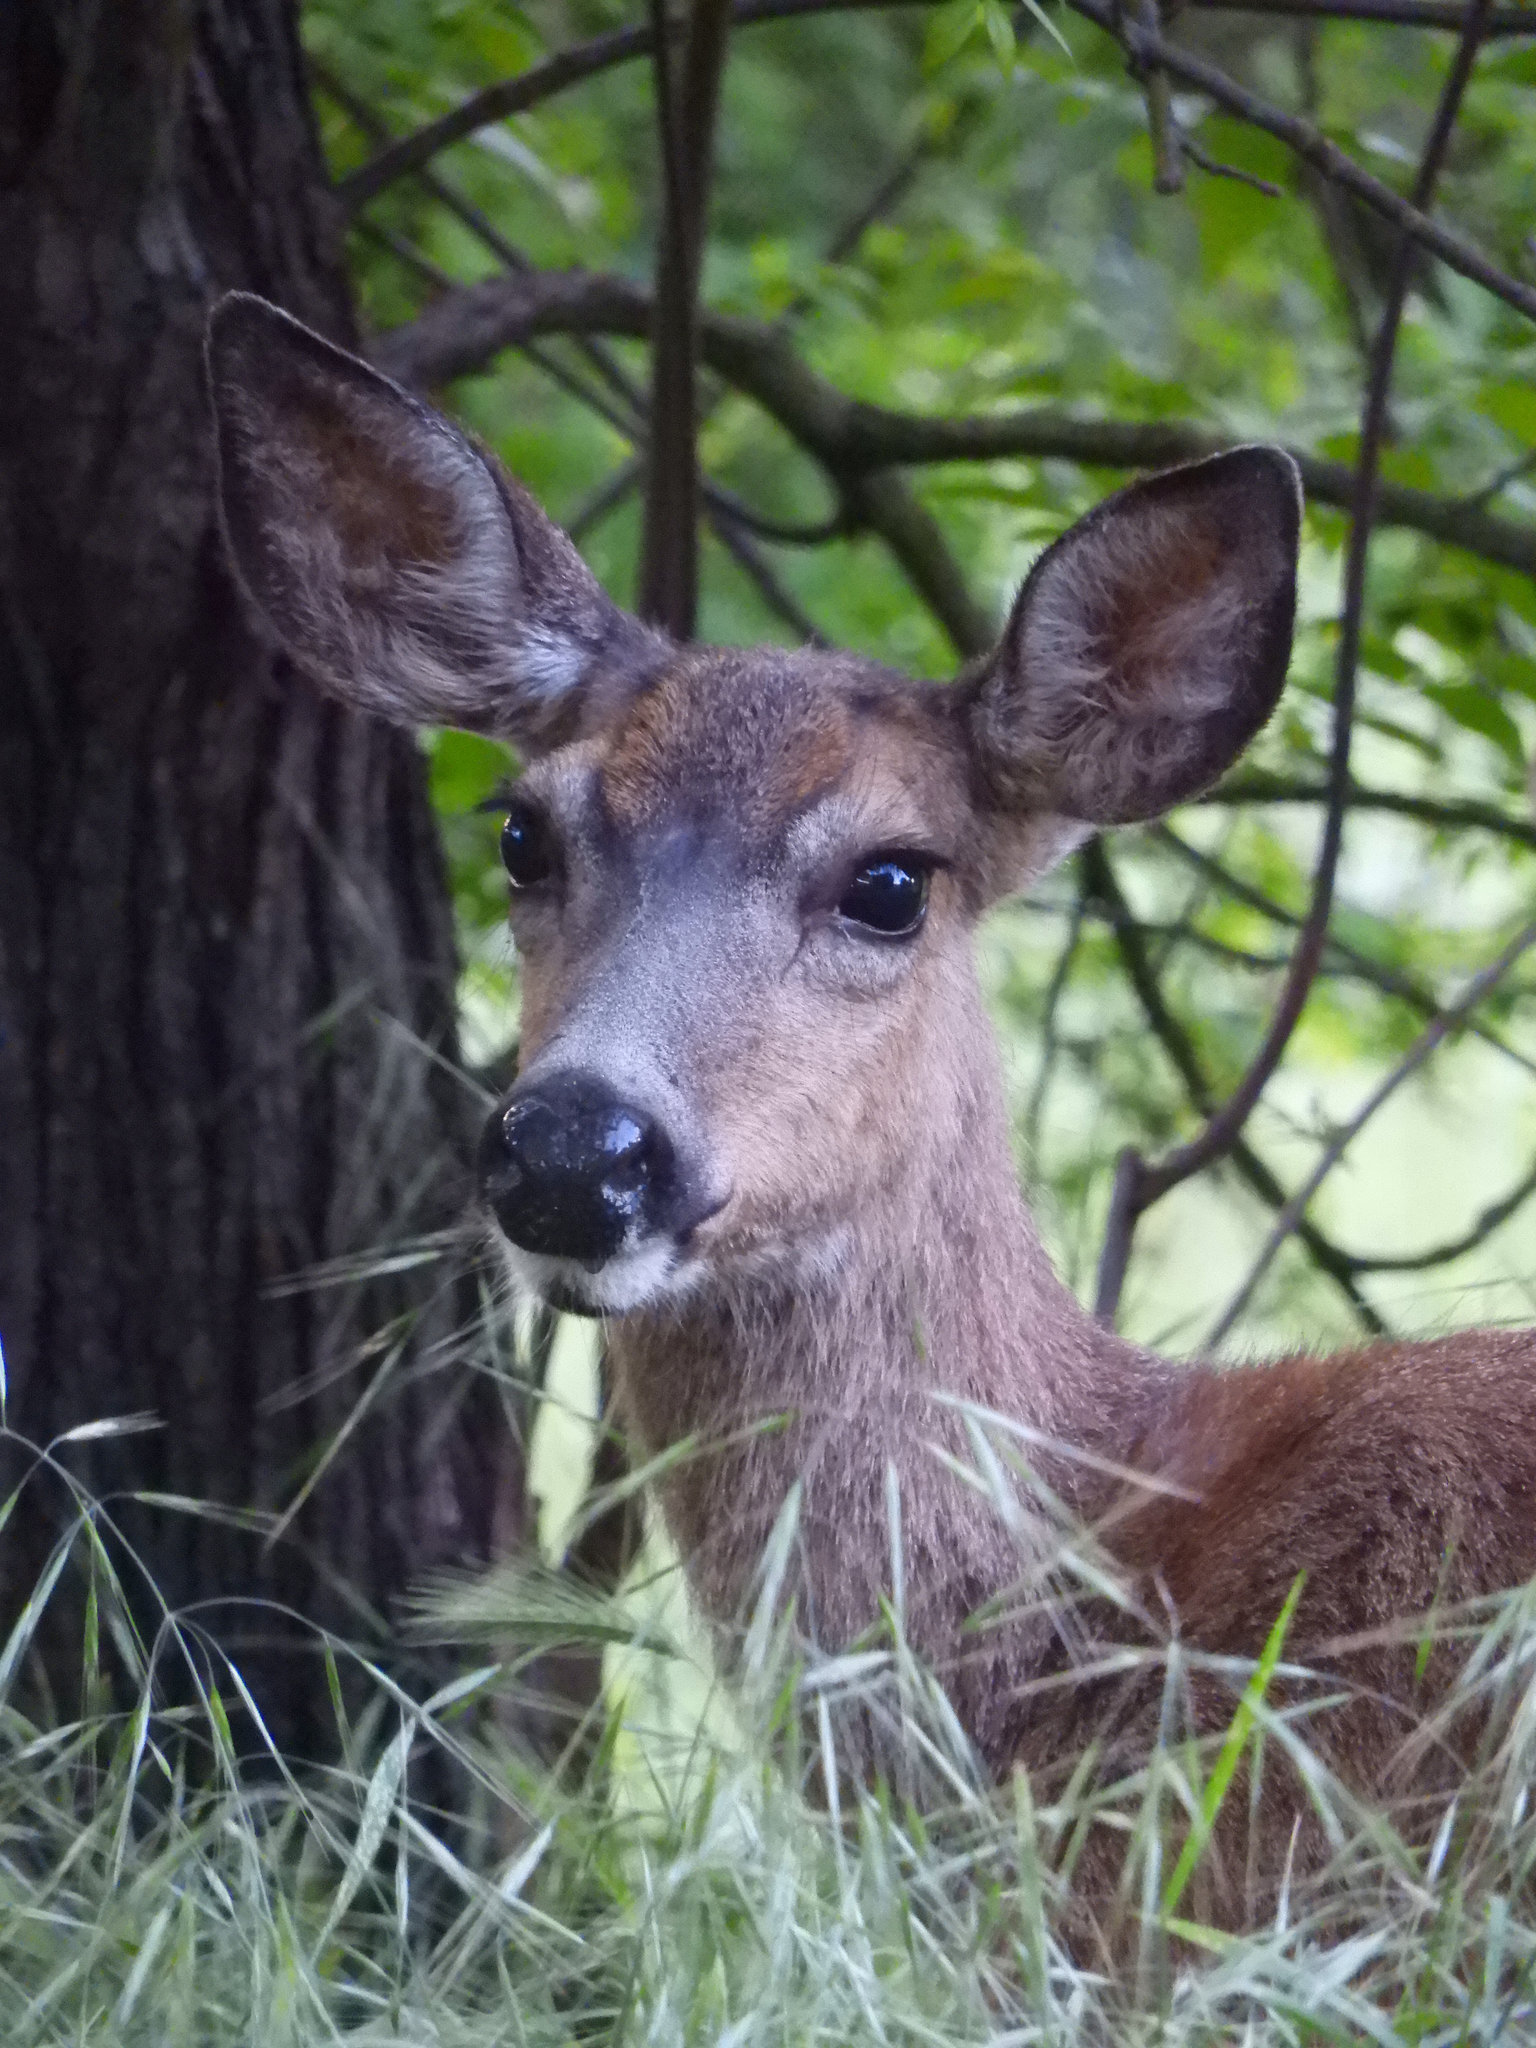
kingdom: Animalia
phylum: Chordata
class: Mammalia
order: Artiodactyla
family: Cervidae
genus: Odocoileus
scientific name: Odocoileus hemionus
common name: Mule deer
